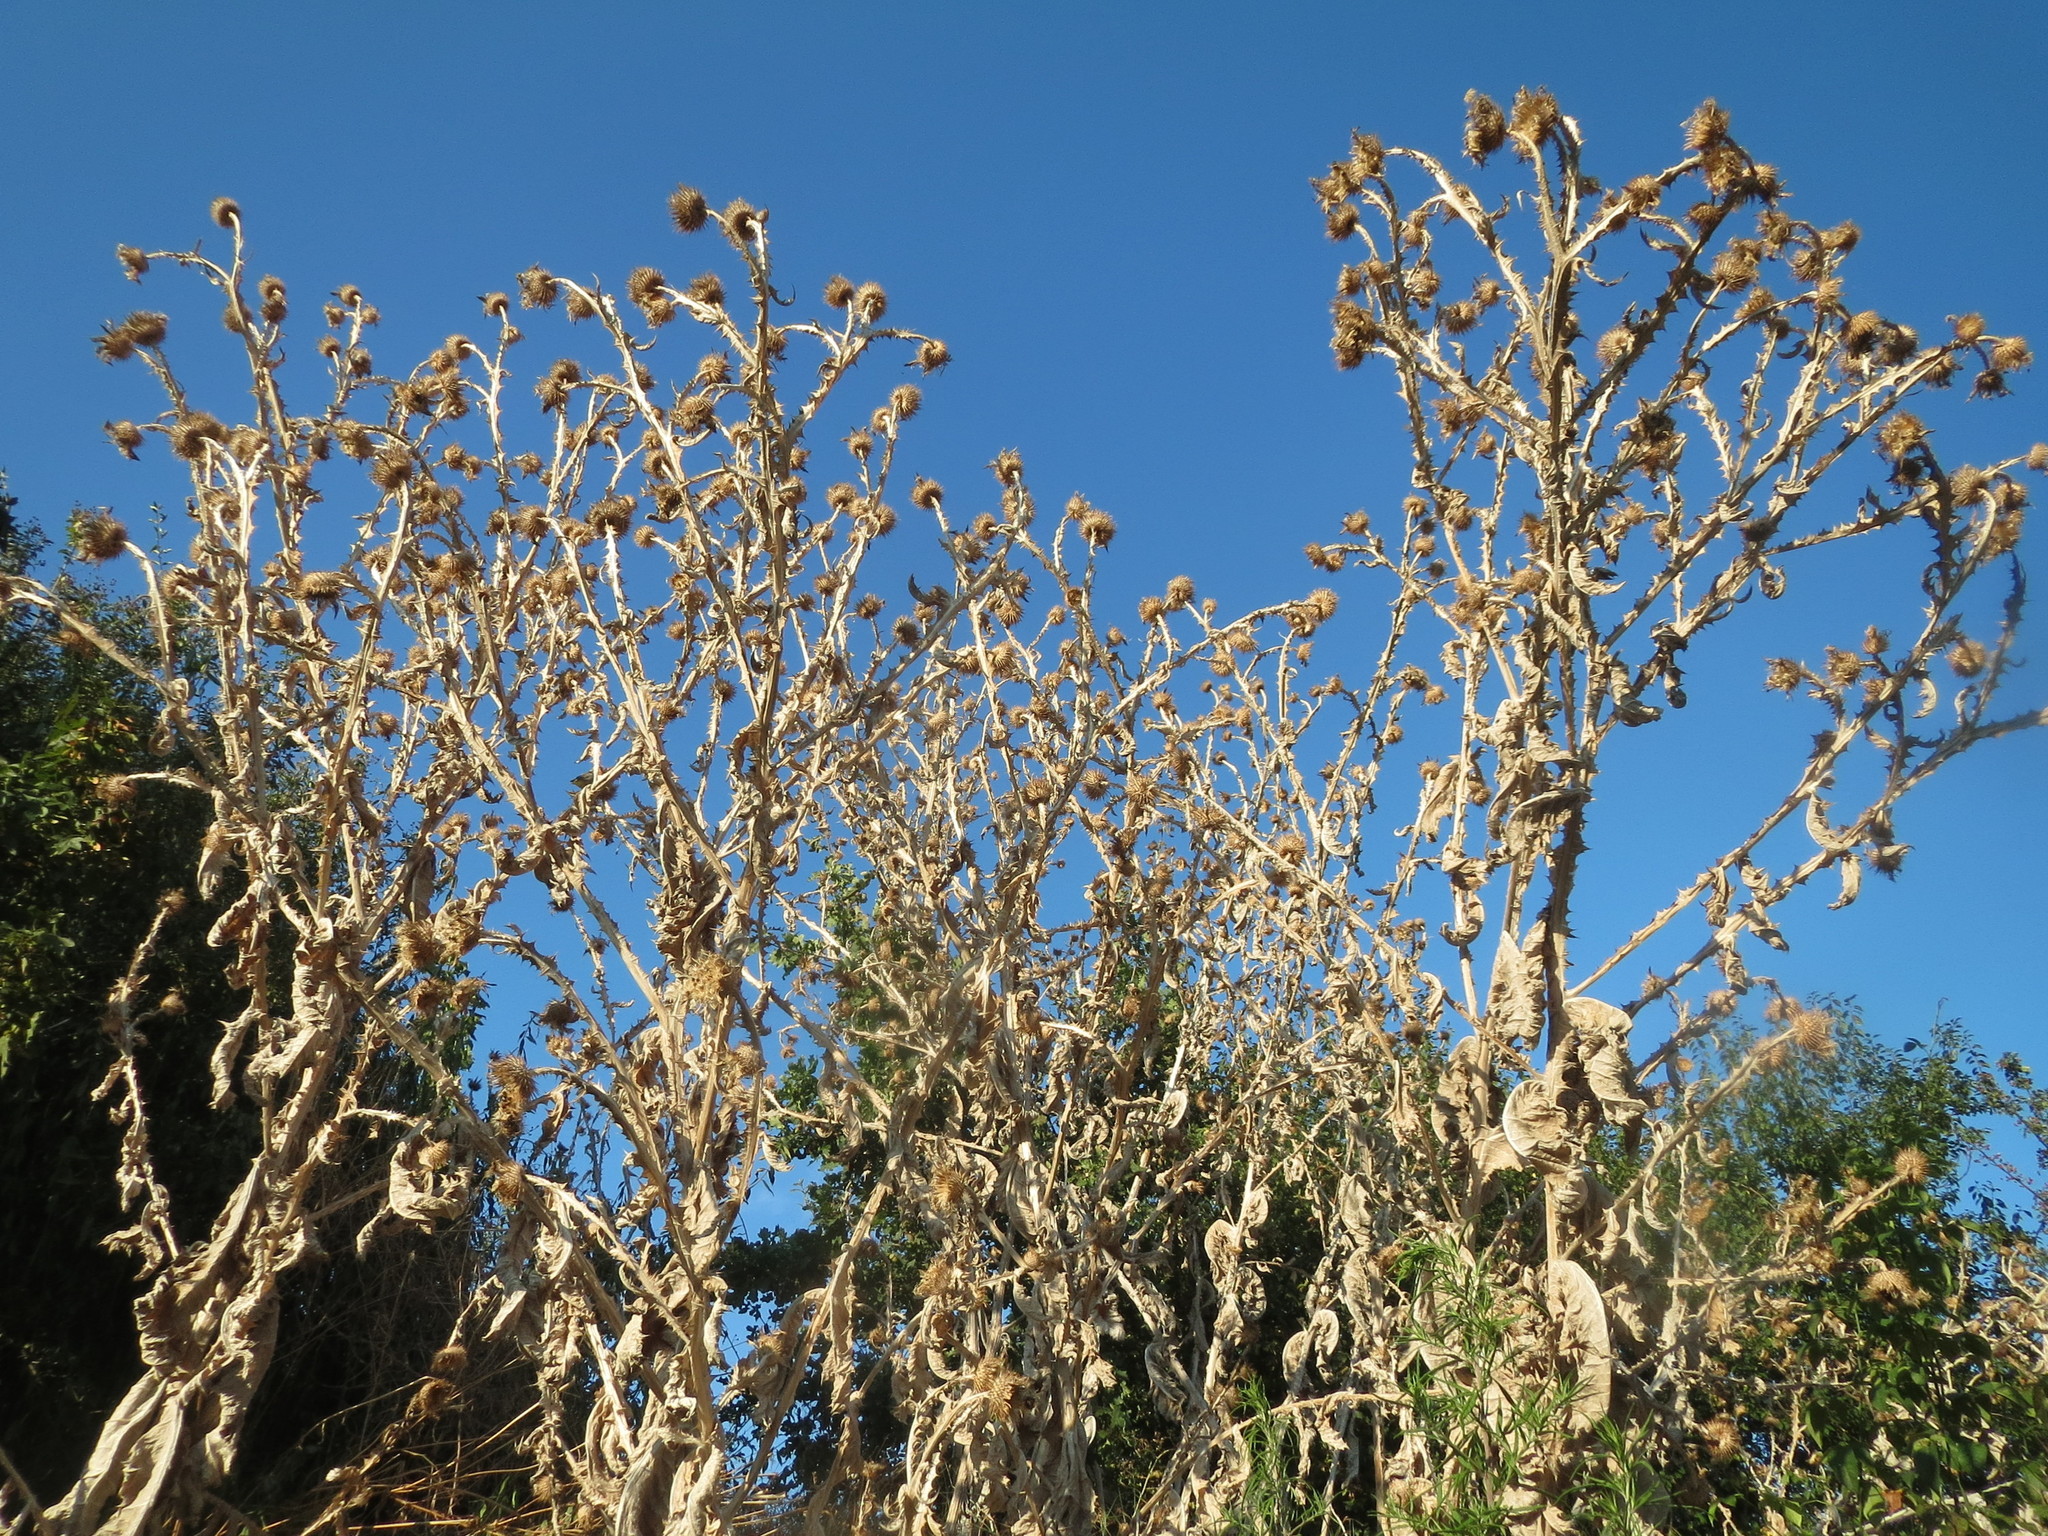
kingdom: Plantae
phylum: Tracheophyta
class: Magnoliopsida
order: Asterales
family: Asteraceae
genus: Onopordum
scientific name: Onopordum acanthium
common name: Scotch thistle
